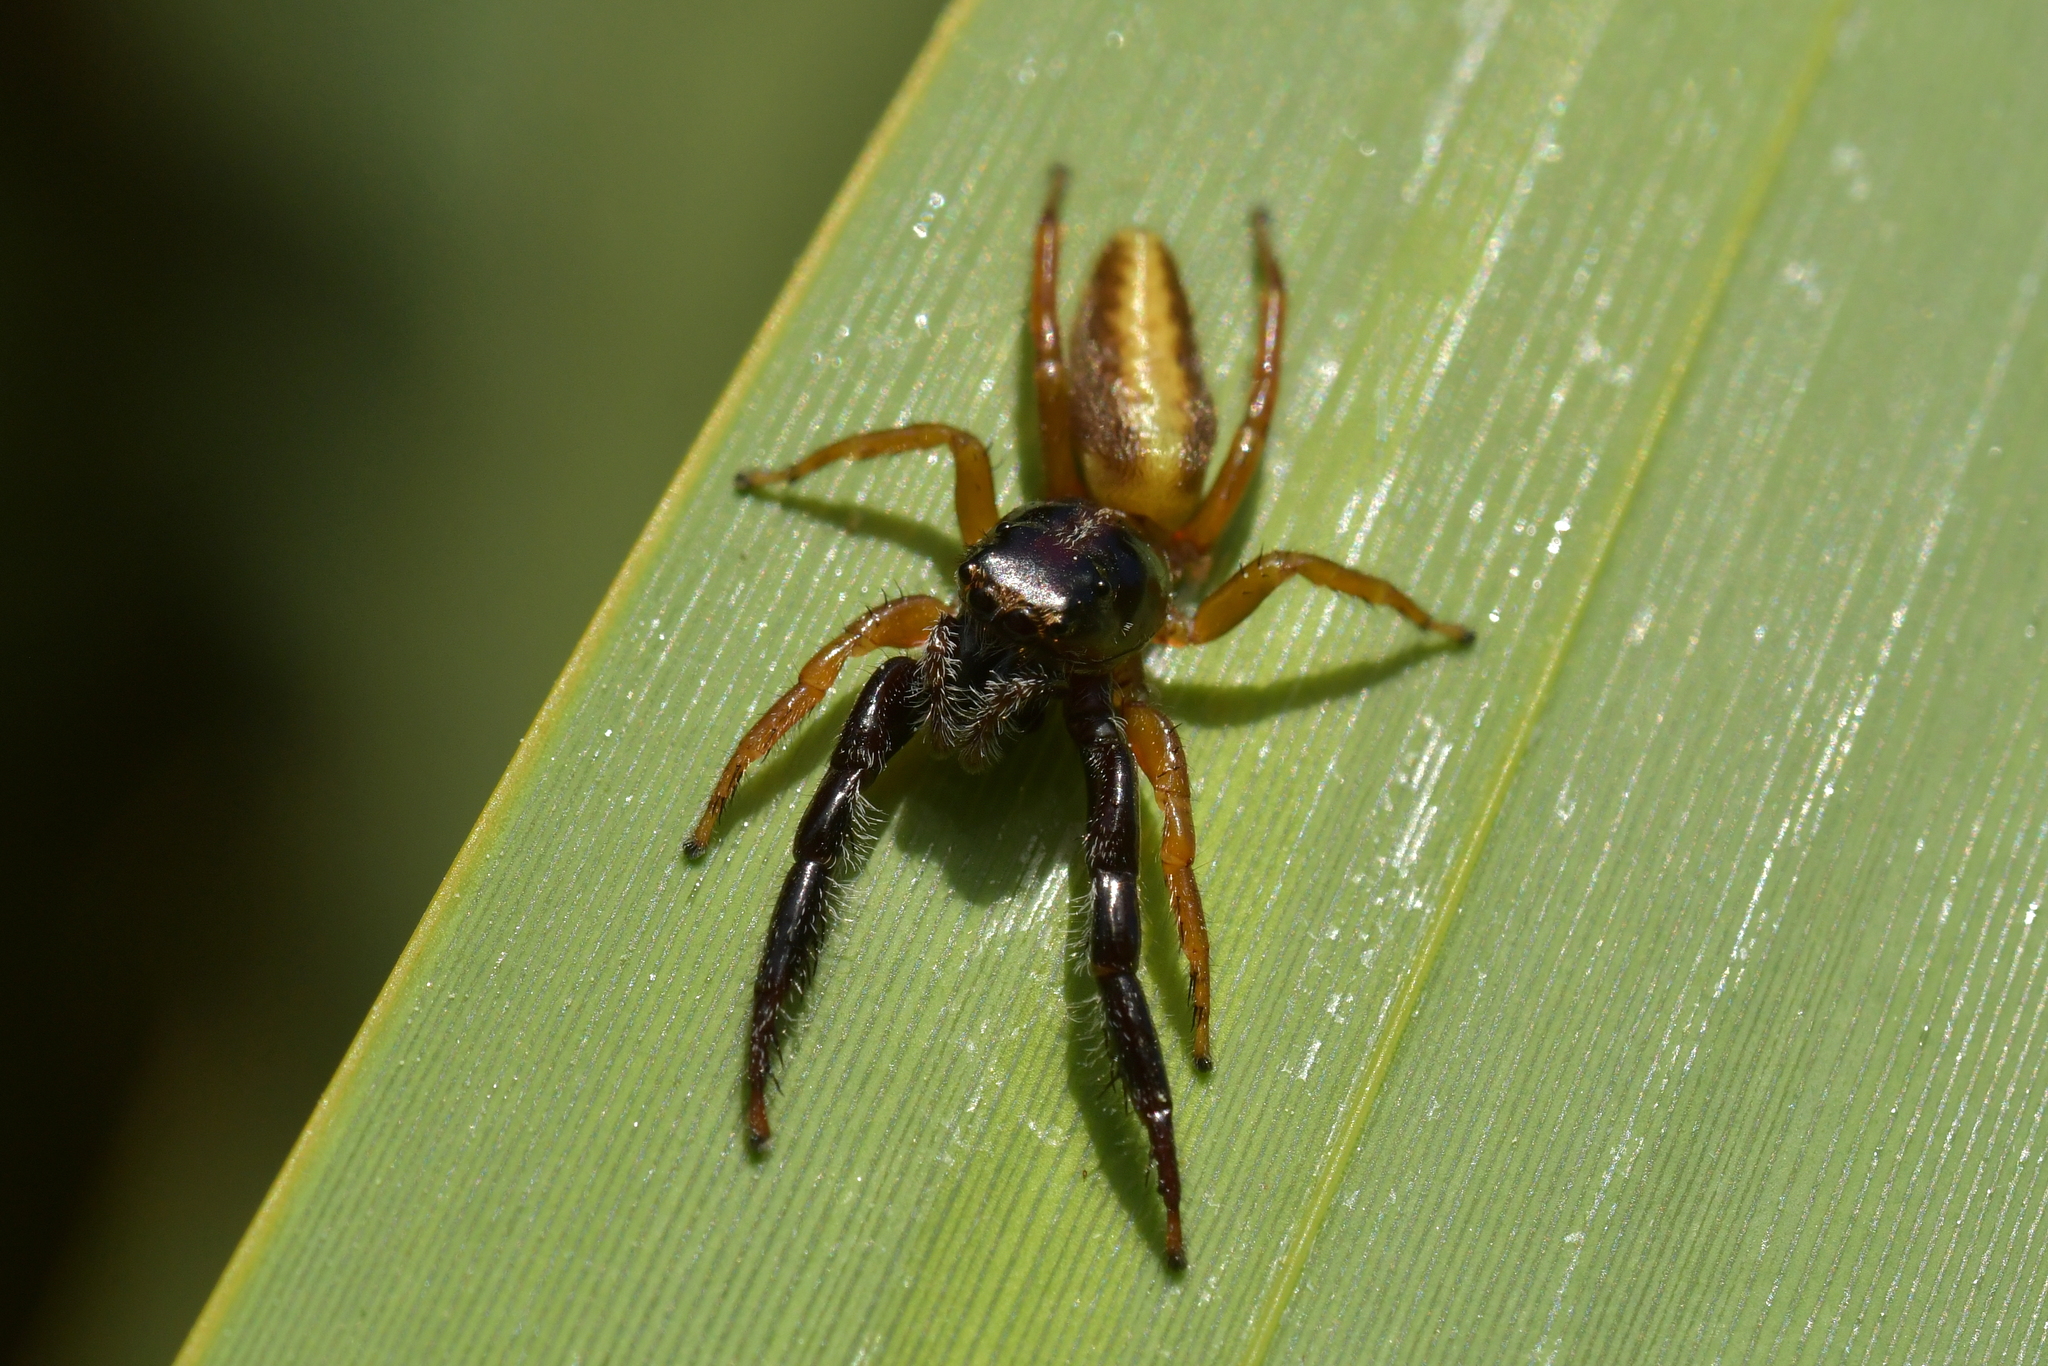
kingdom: Animalia
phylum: Arthropoda
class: Arachnida
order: Araneae
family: Salticidae
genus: Trite
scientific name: Trite planiceps
